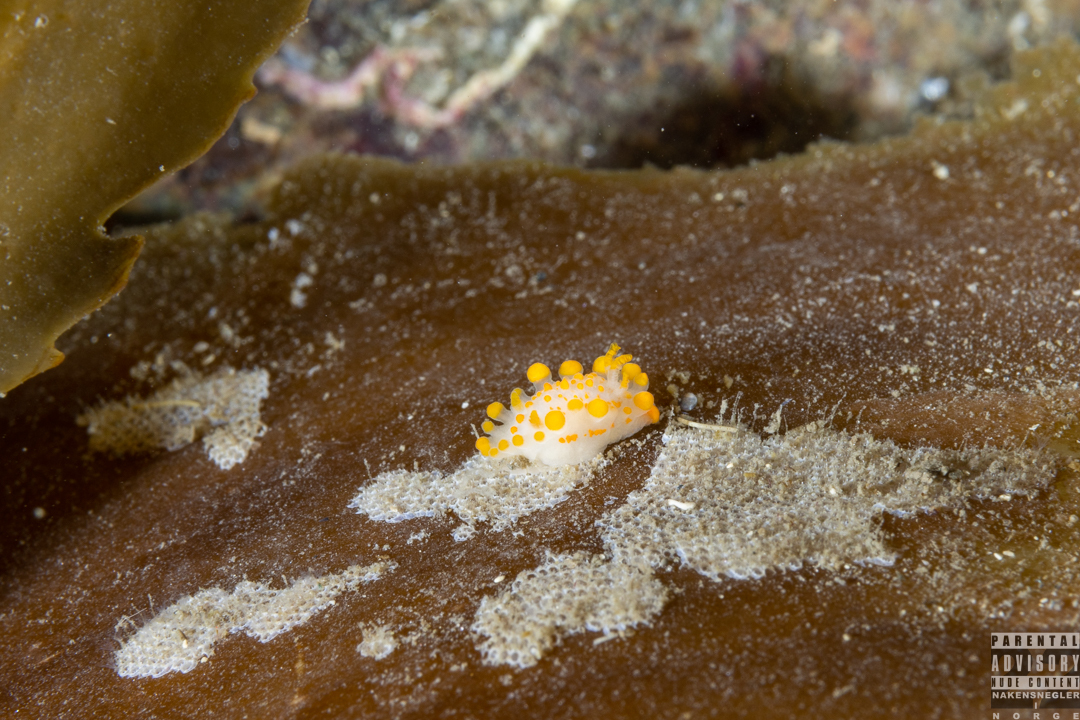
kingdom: Animalia
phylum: Mollusca
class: Gastropoda
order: Nudibranchia
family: Polyceridae
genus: Limacia
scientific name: Limacia clavigera
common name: Orange-clubbed sea slug
